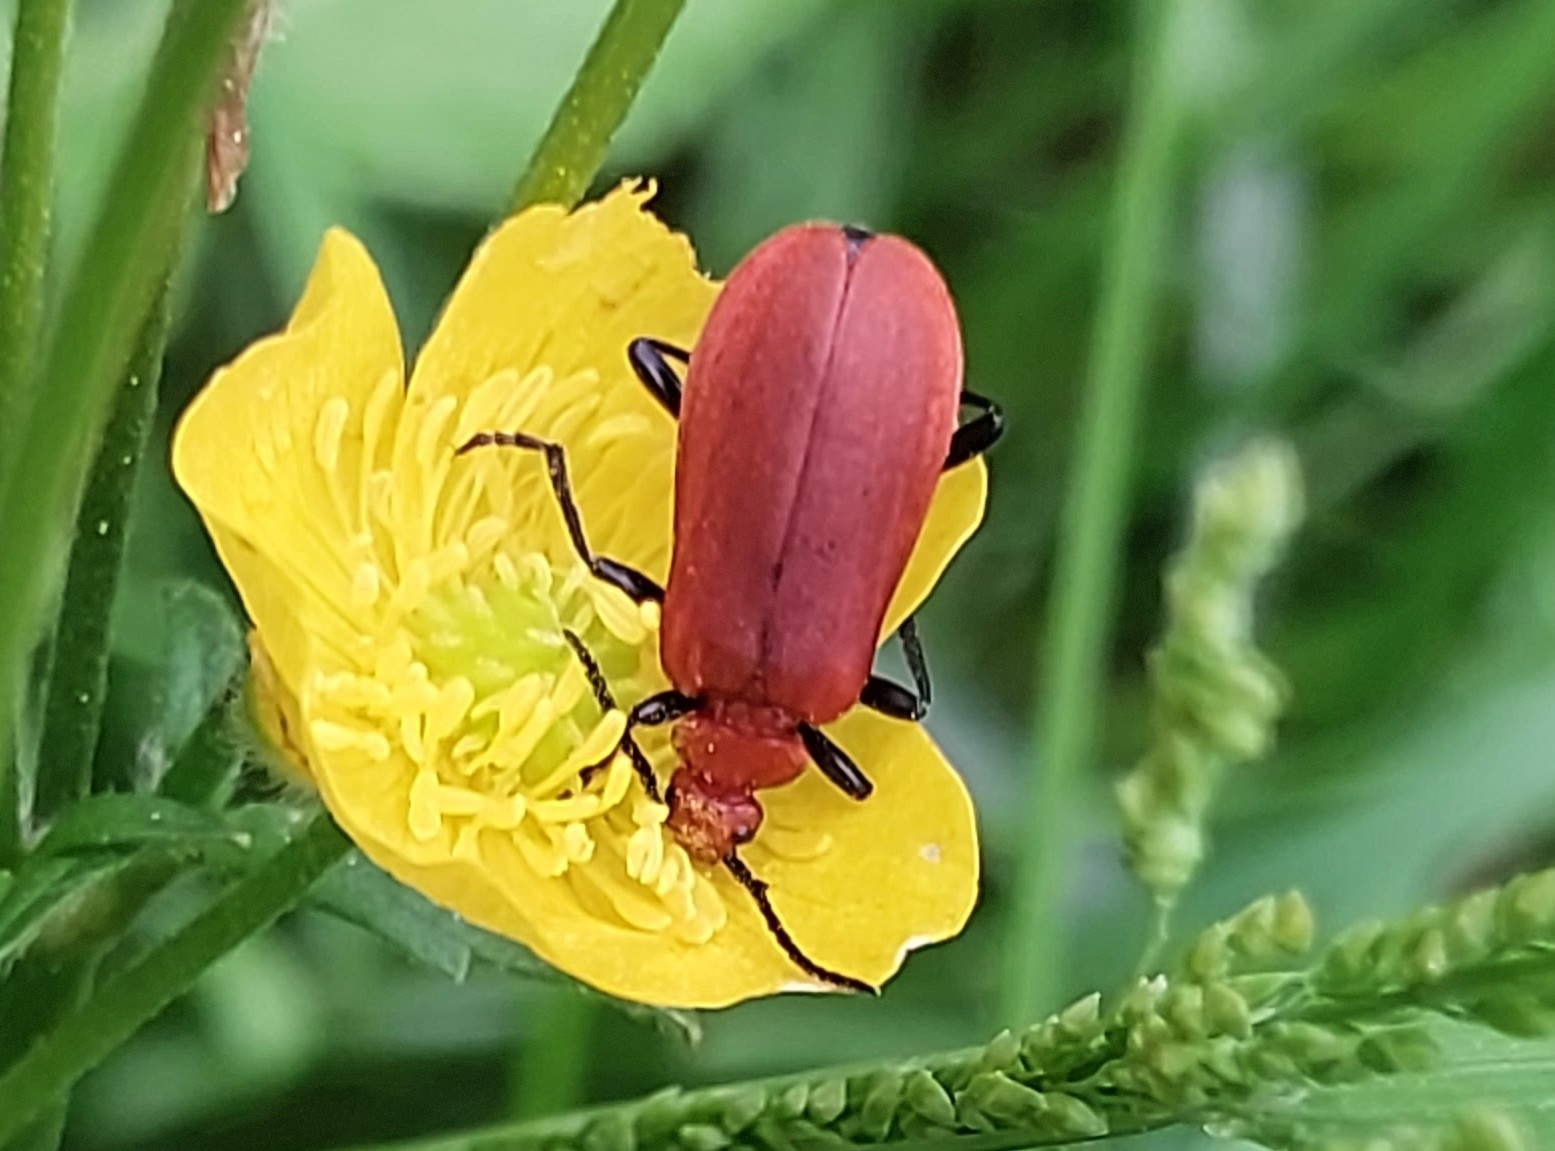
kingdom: Animalia
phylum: Arthropoda
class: Insecta
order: Coleoptera
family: Pyrochroidae
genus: Pyrochroa
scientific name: Pyrochroa serraticornis
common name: Red-headed cardinal beetle
